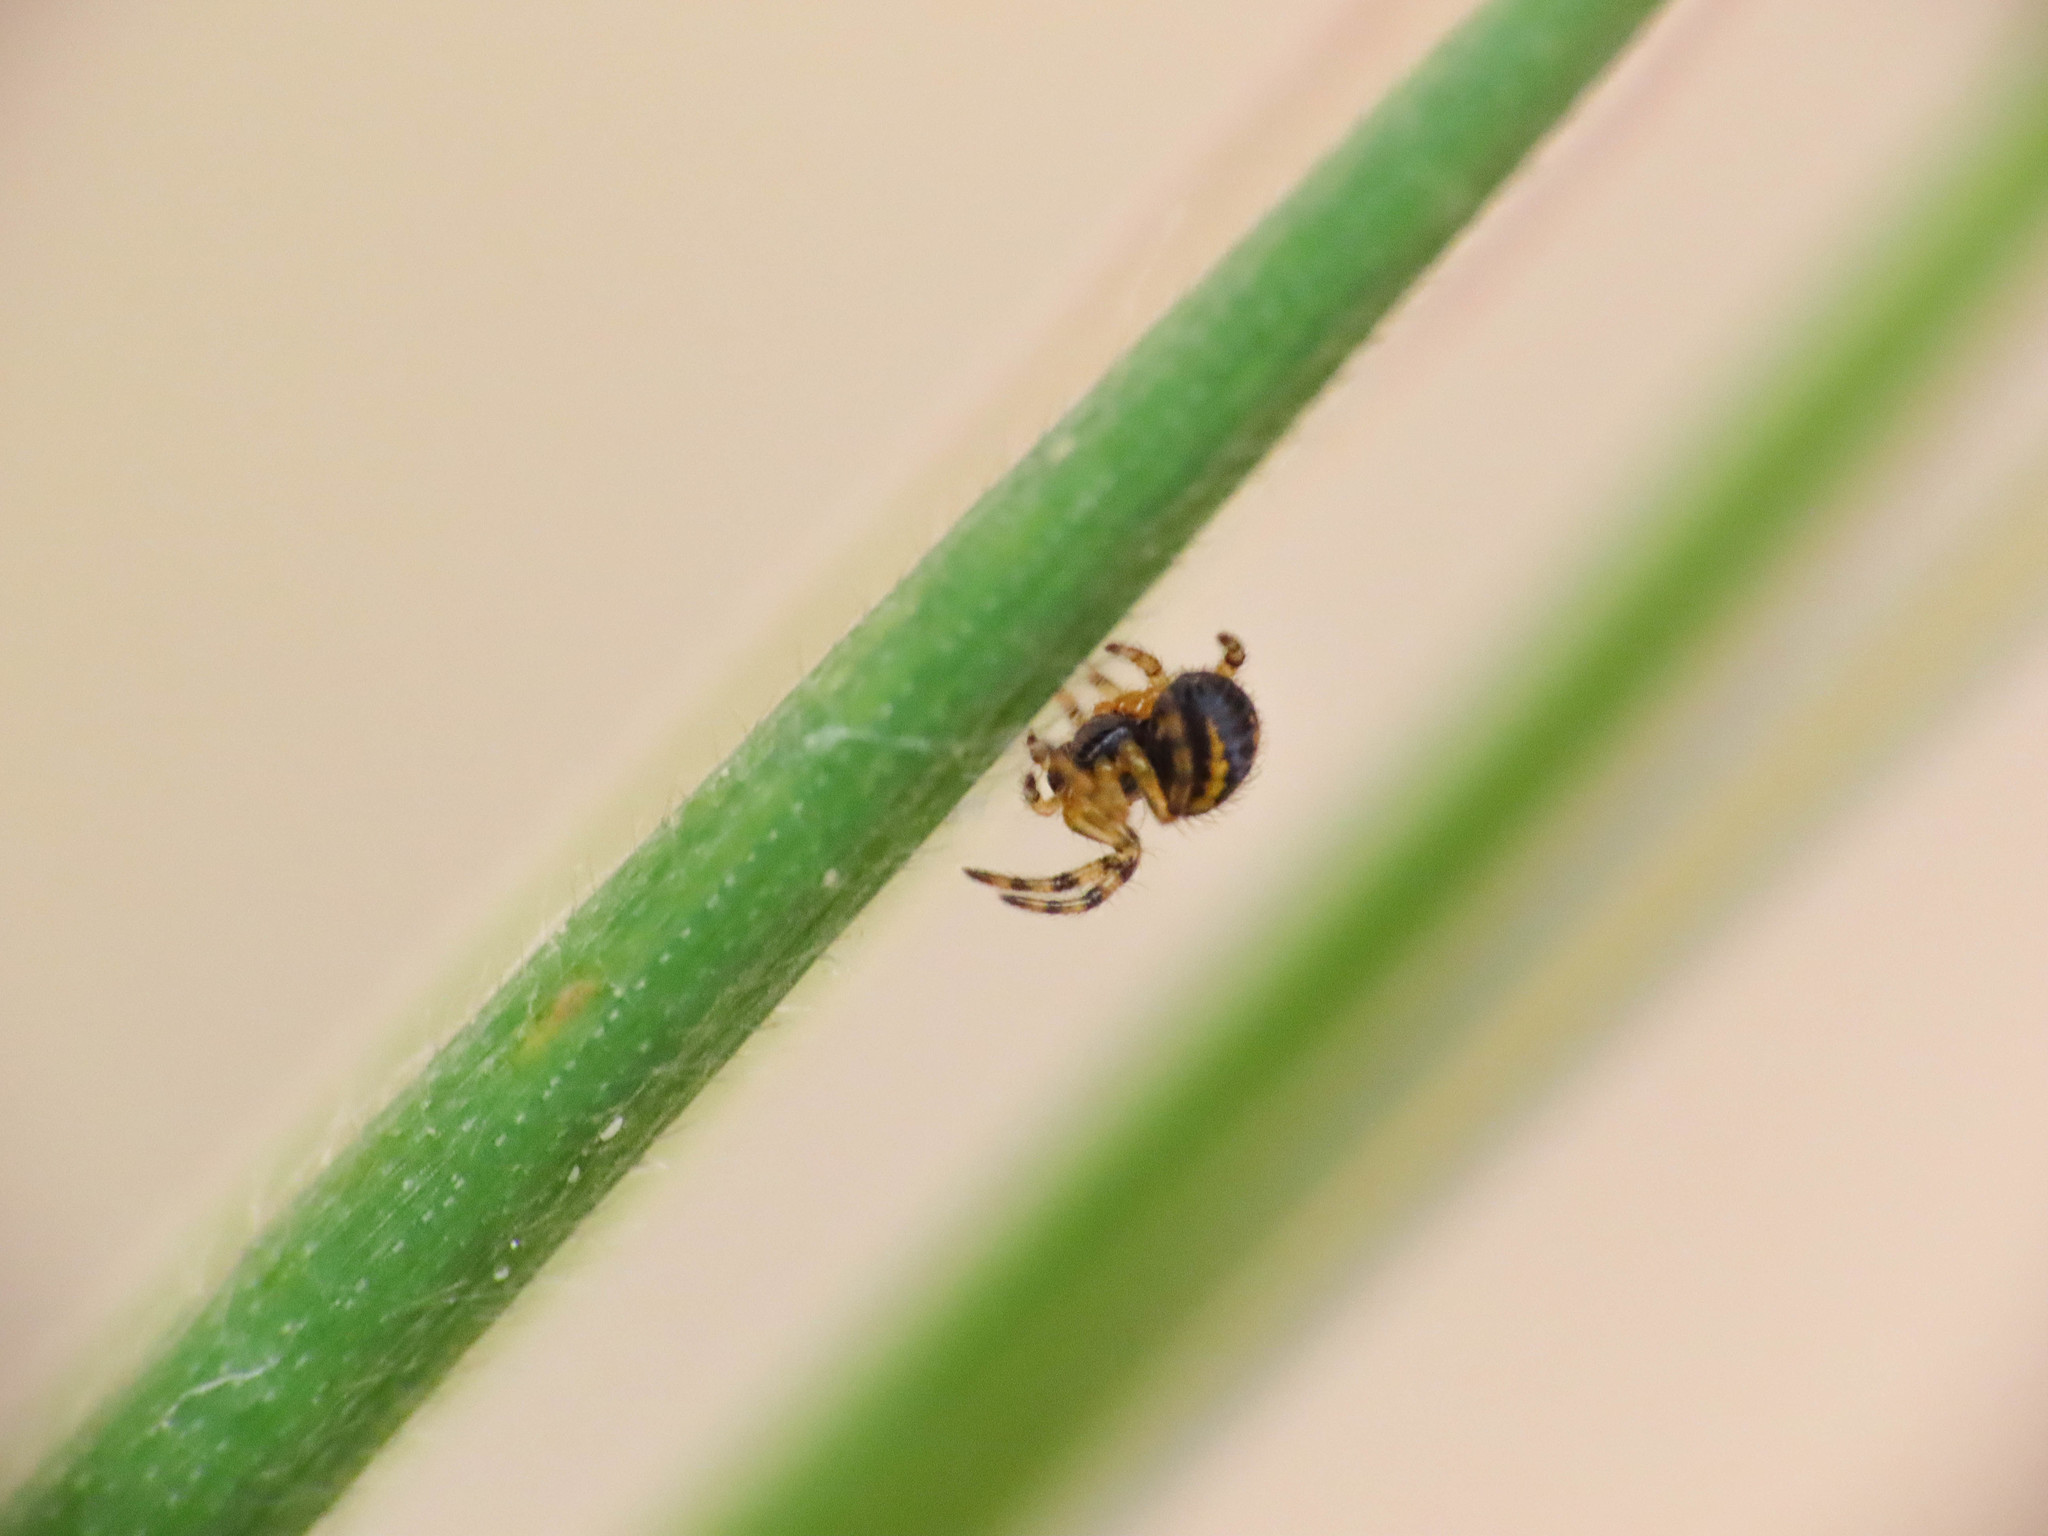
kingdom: Animalia
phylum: Arthropoda
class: Arachnida
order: Araneae
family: Araneidae
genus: Neoscona
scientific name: Neoscona adianta
